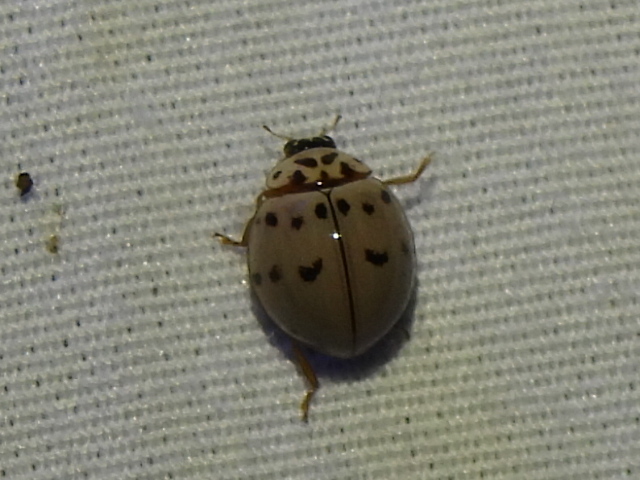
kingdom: Animalia
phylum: Arthropoda
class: Insecta
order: Coleoptera
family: Coccinellidae
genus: Olla
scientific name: Olla v-nigrum
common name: Ashy gray lady beetle
